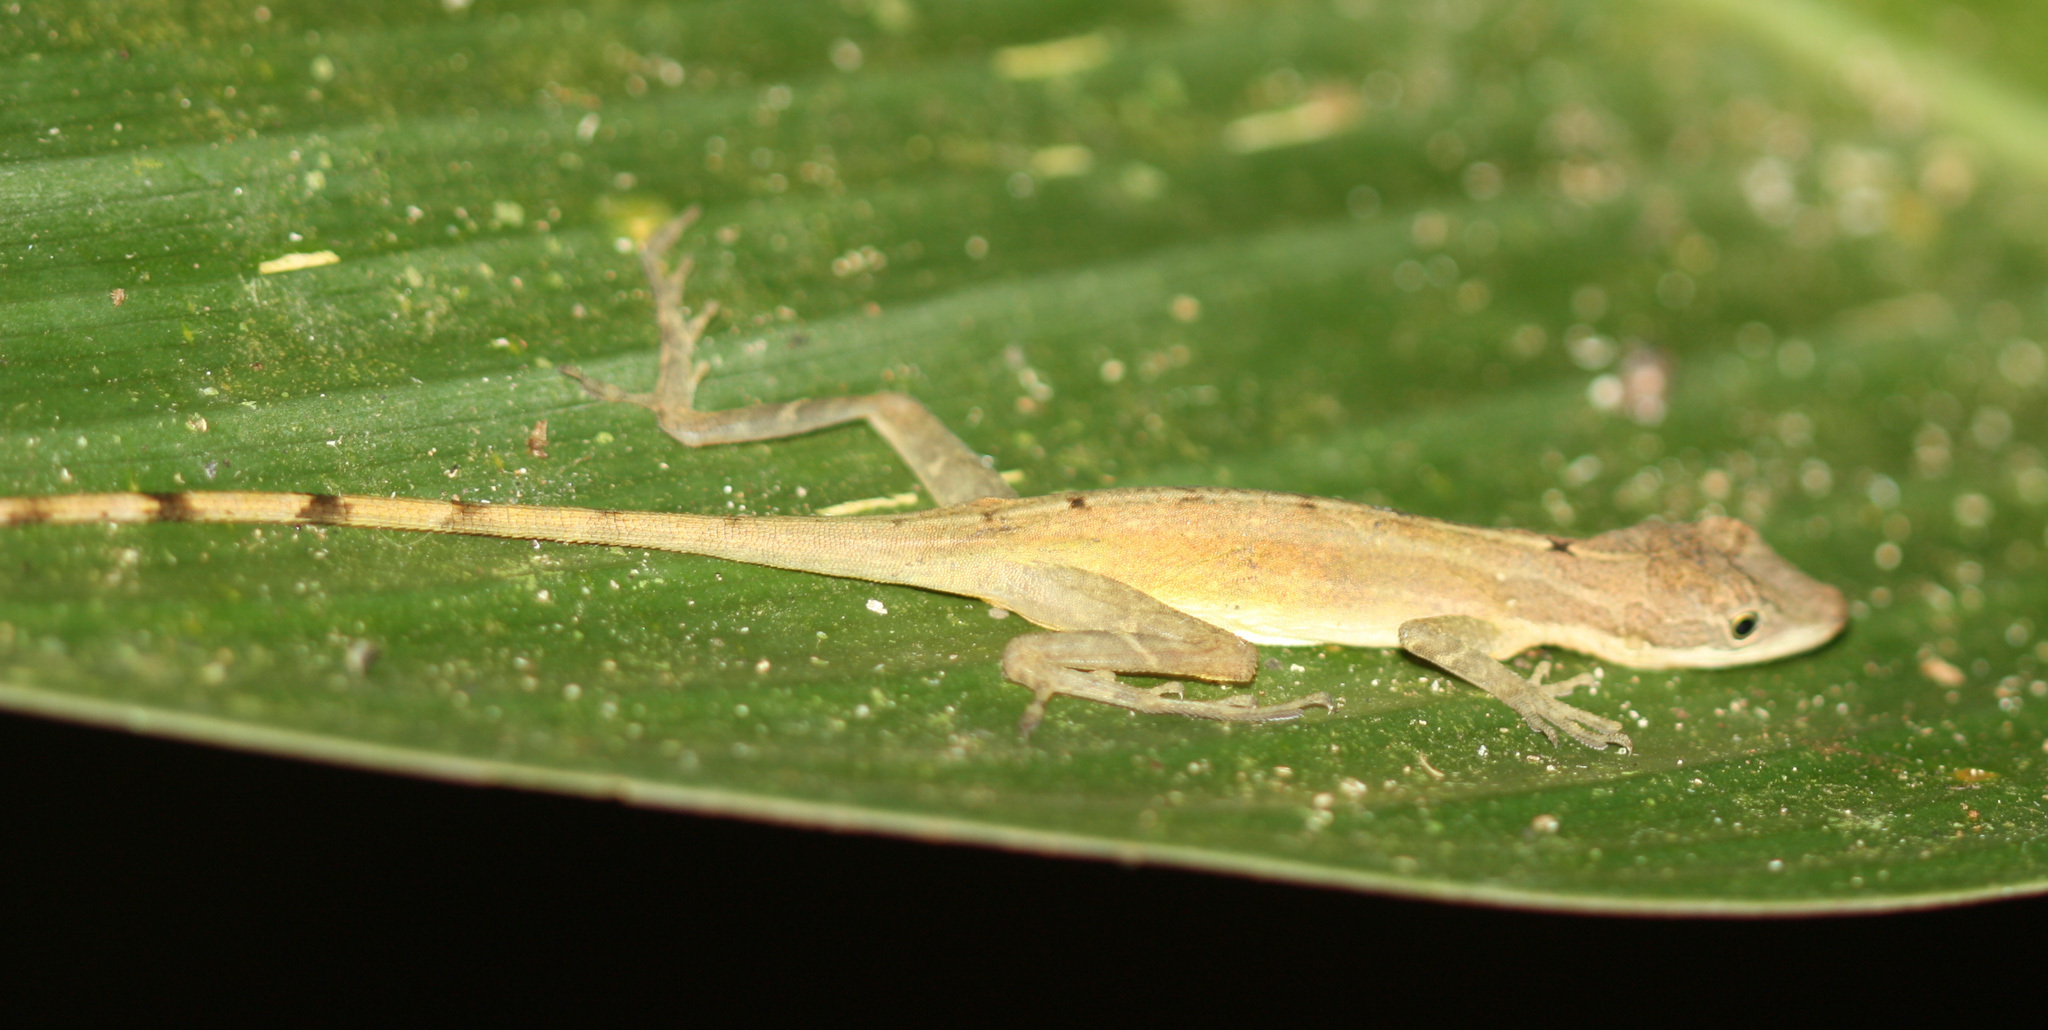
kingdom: Animalia
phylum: Chordata
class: Squamata
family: Dactyloidae
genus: Anolis
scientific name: Anolis limifrons
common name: Border anole
